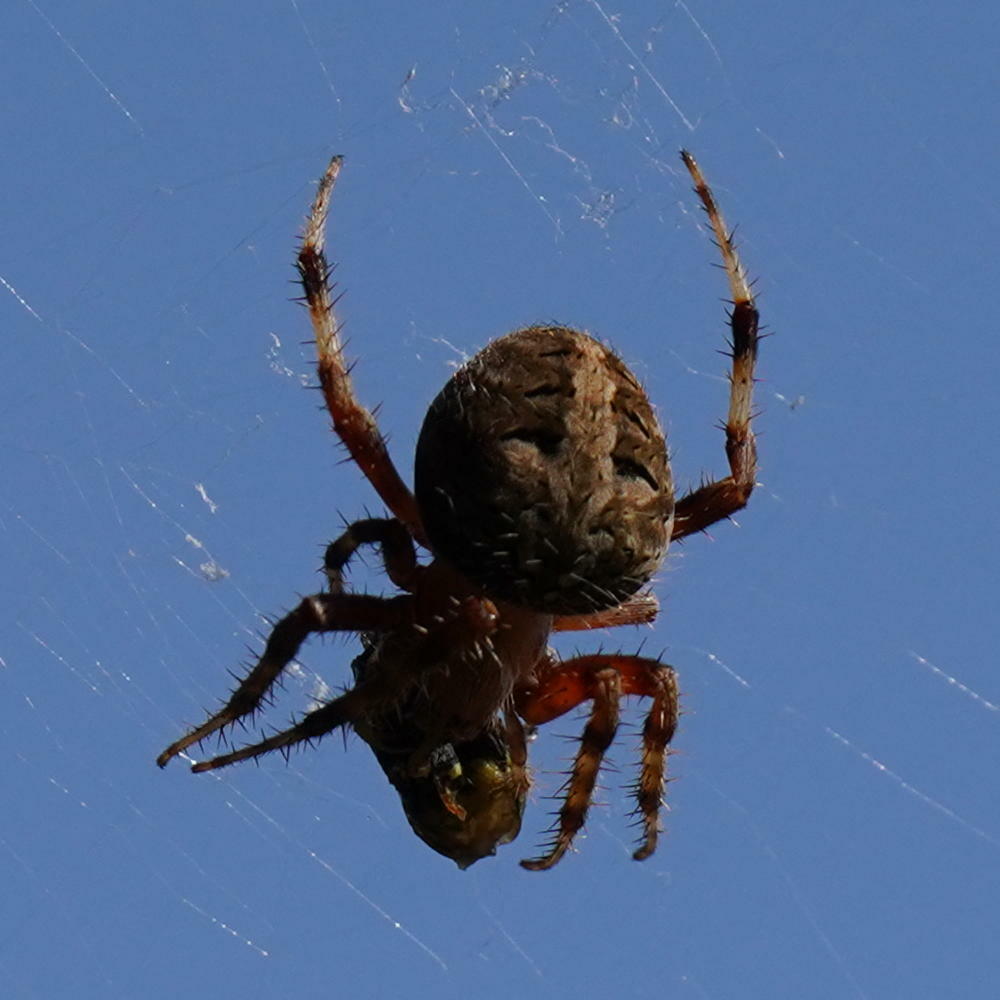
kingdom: Animalia
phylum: Arthropoda
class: Arachnida
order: Araneae
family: Araneidae
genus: Neoscona
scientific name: Neoscona crucifera
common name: Spotted orbweaver
